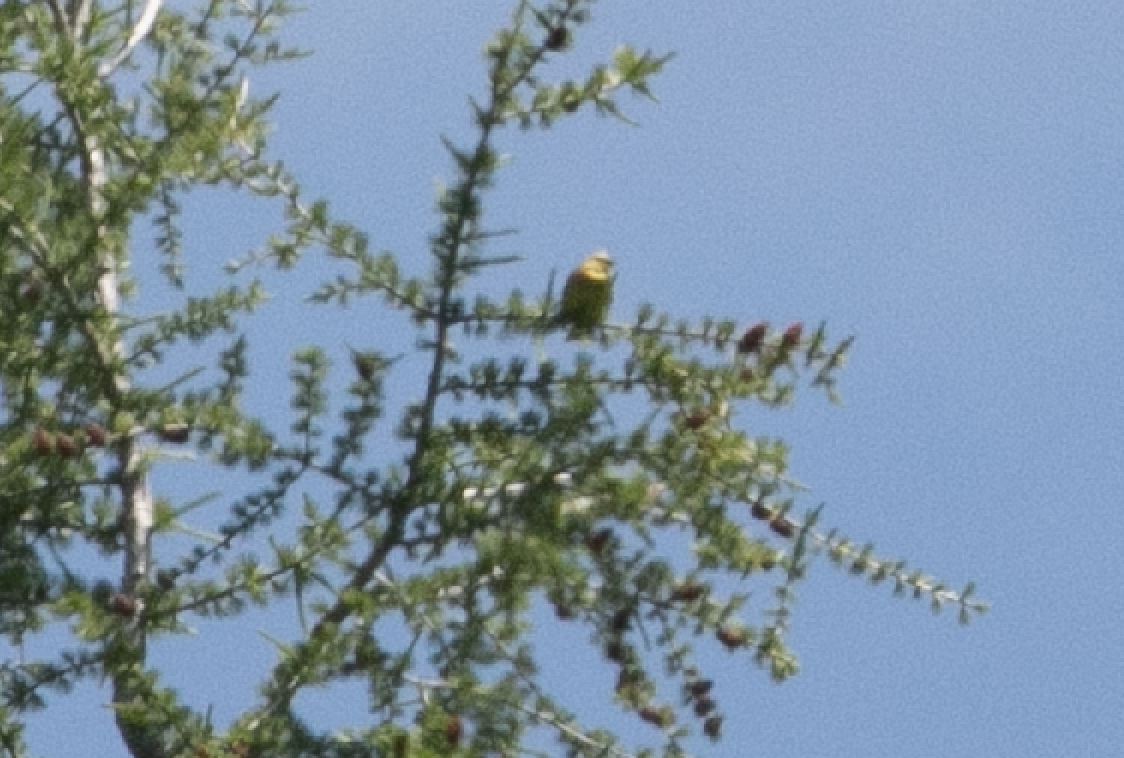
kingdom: Animalia
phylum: Chordata
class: Aves
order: Passeriformes
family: Emberizidae
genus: Emberiza
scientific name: Emberiza citrinella
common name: Yellowhammer
